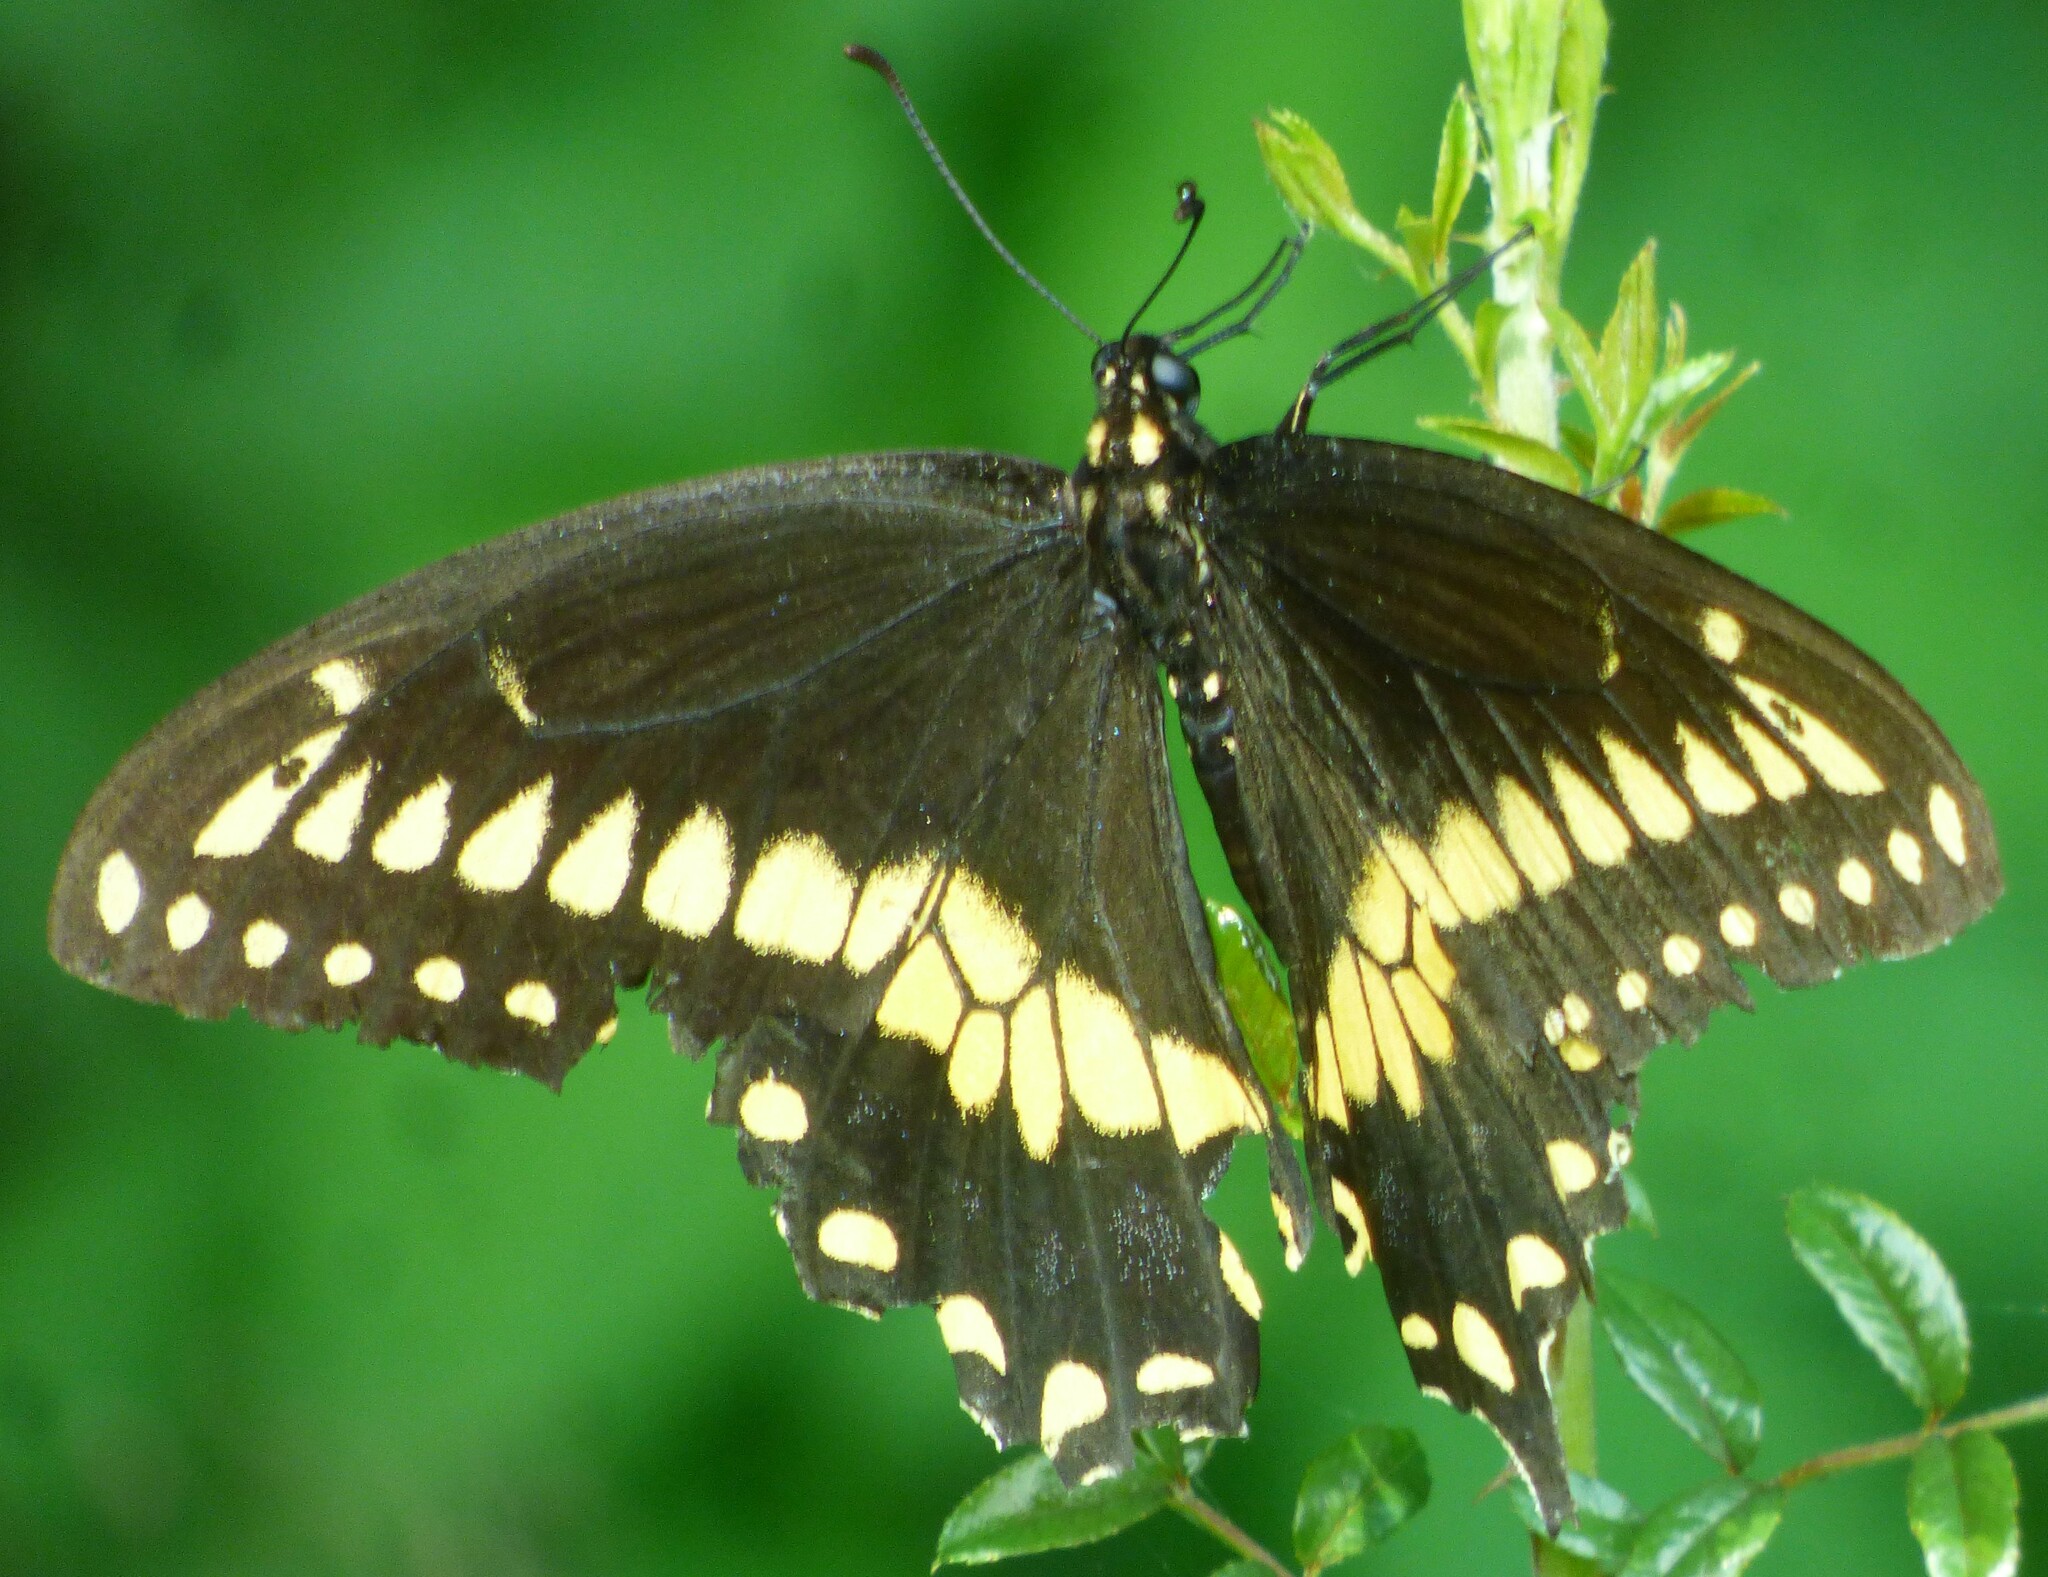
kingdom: Animalia
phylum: Arthropoda
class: Insecta
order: Lepidoptera
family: Papilionidae
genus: Papilio
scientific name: Papilio polyxenes
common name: Black swallowtail
